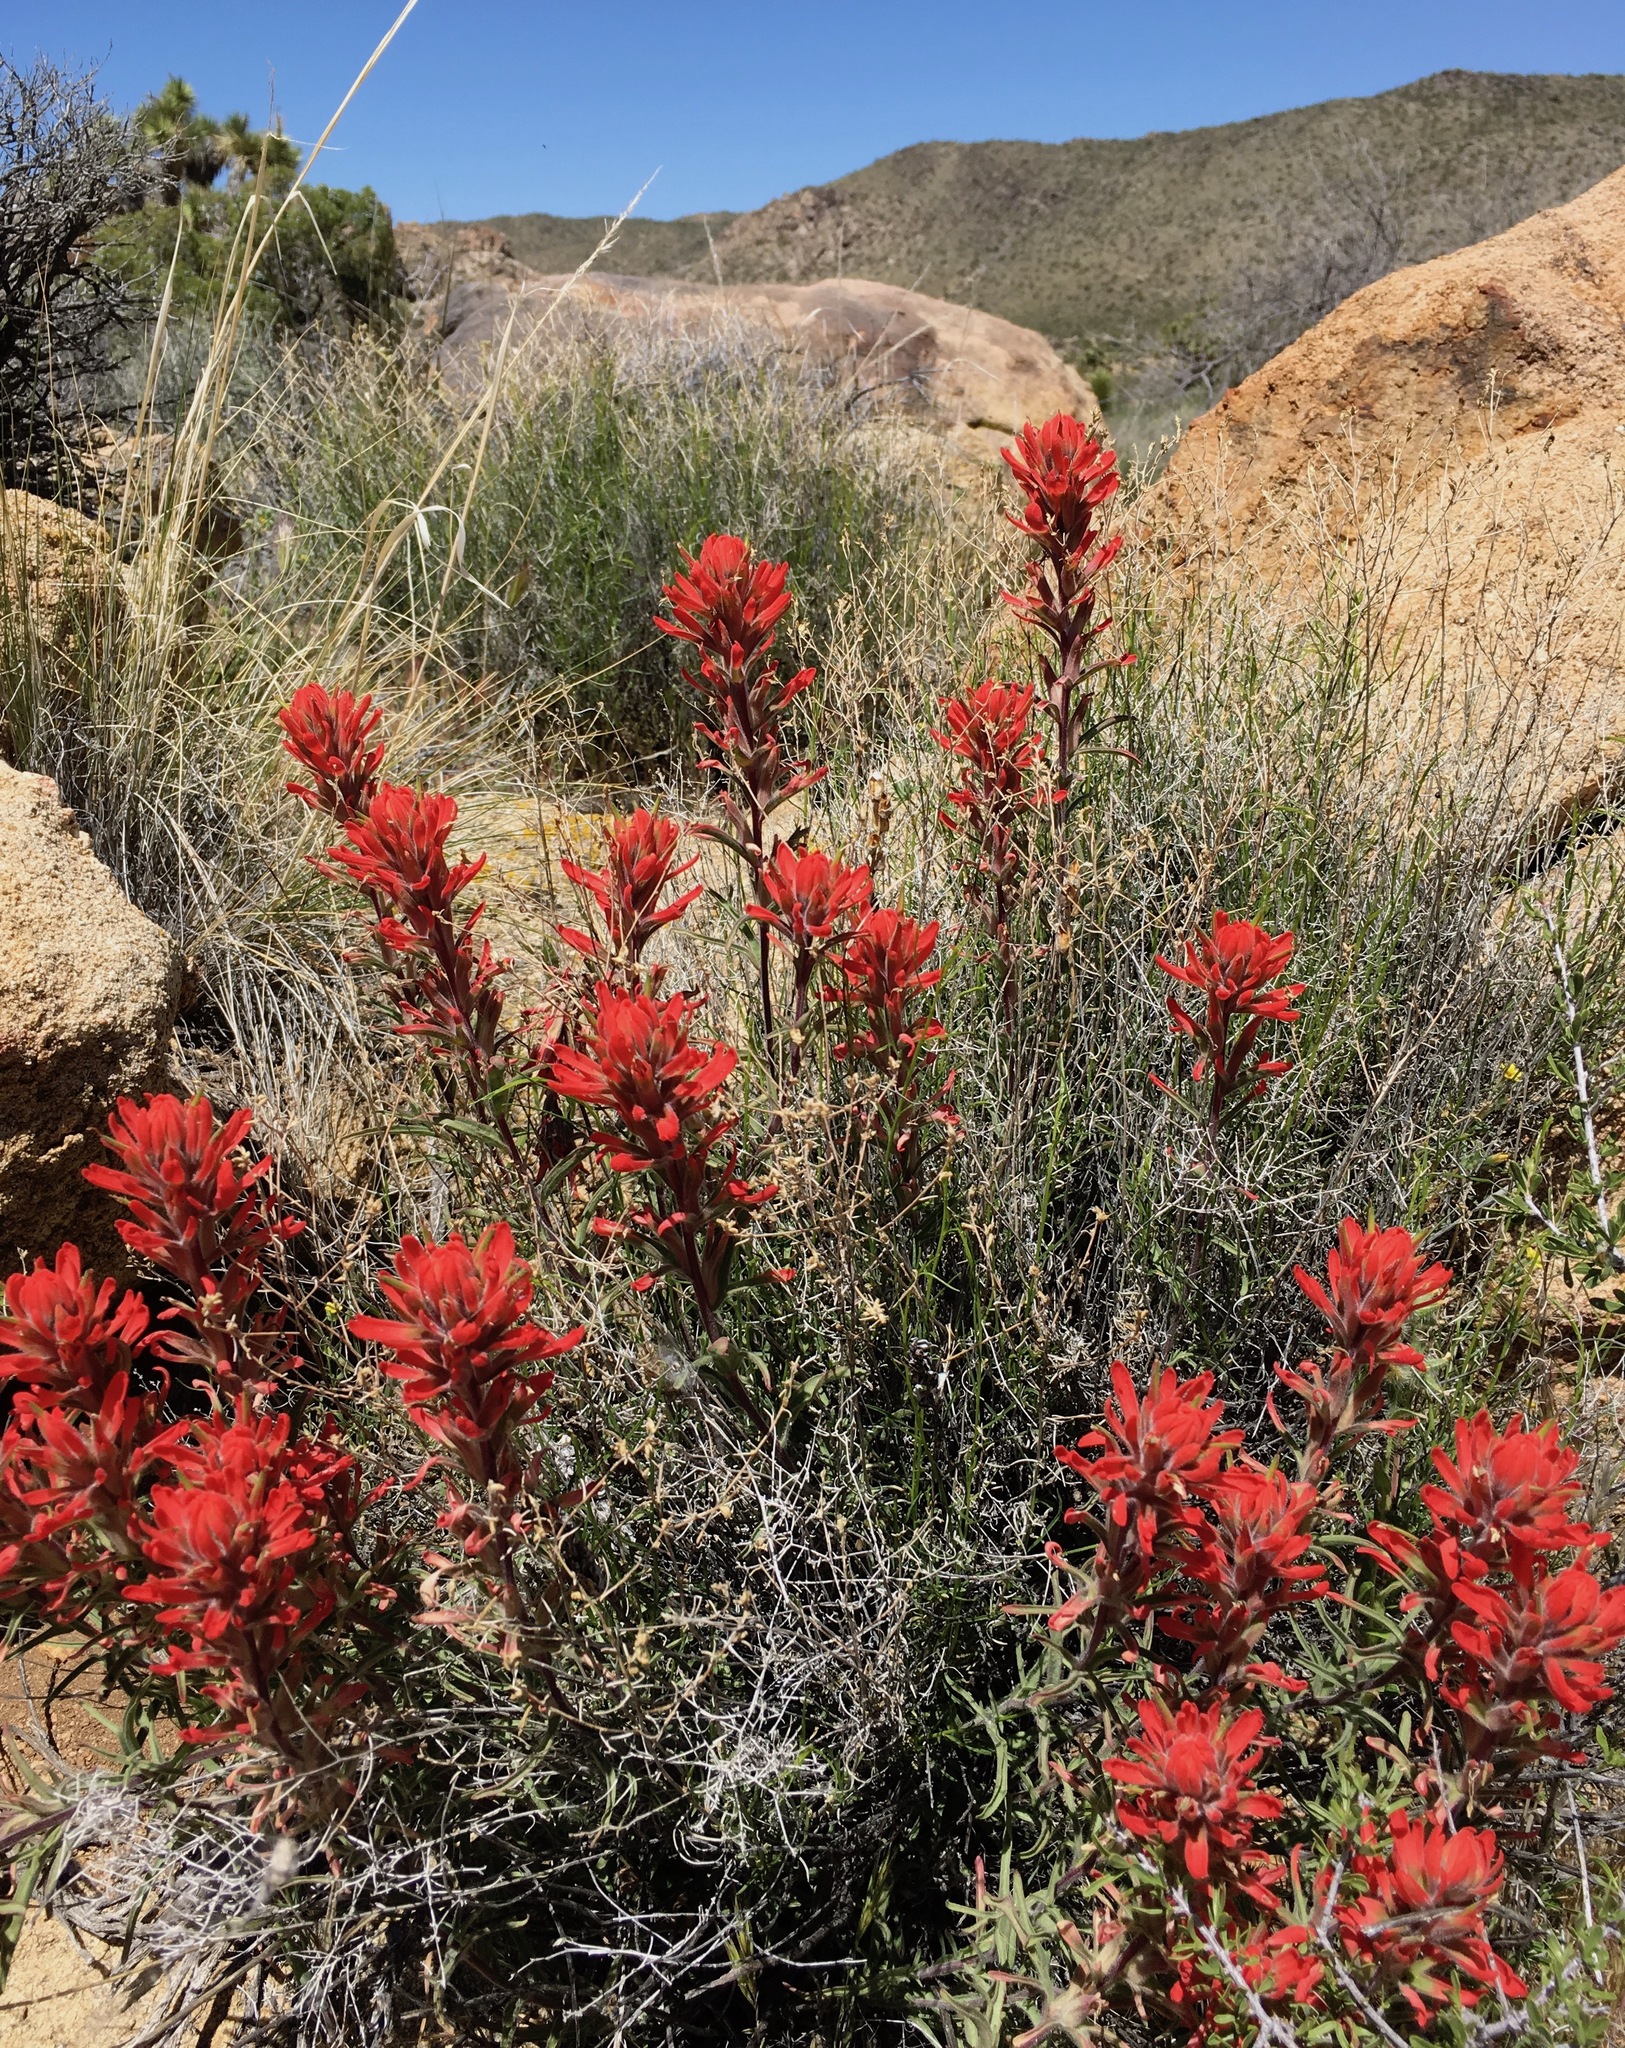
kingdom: Plantae
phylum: Tracheophyta
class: Magnoliopsida
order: Lamiales
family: Orobanchaceae
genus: Castilleja
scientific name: Castilleja chromosa
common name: Desert paintbrush
